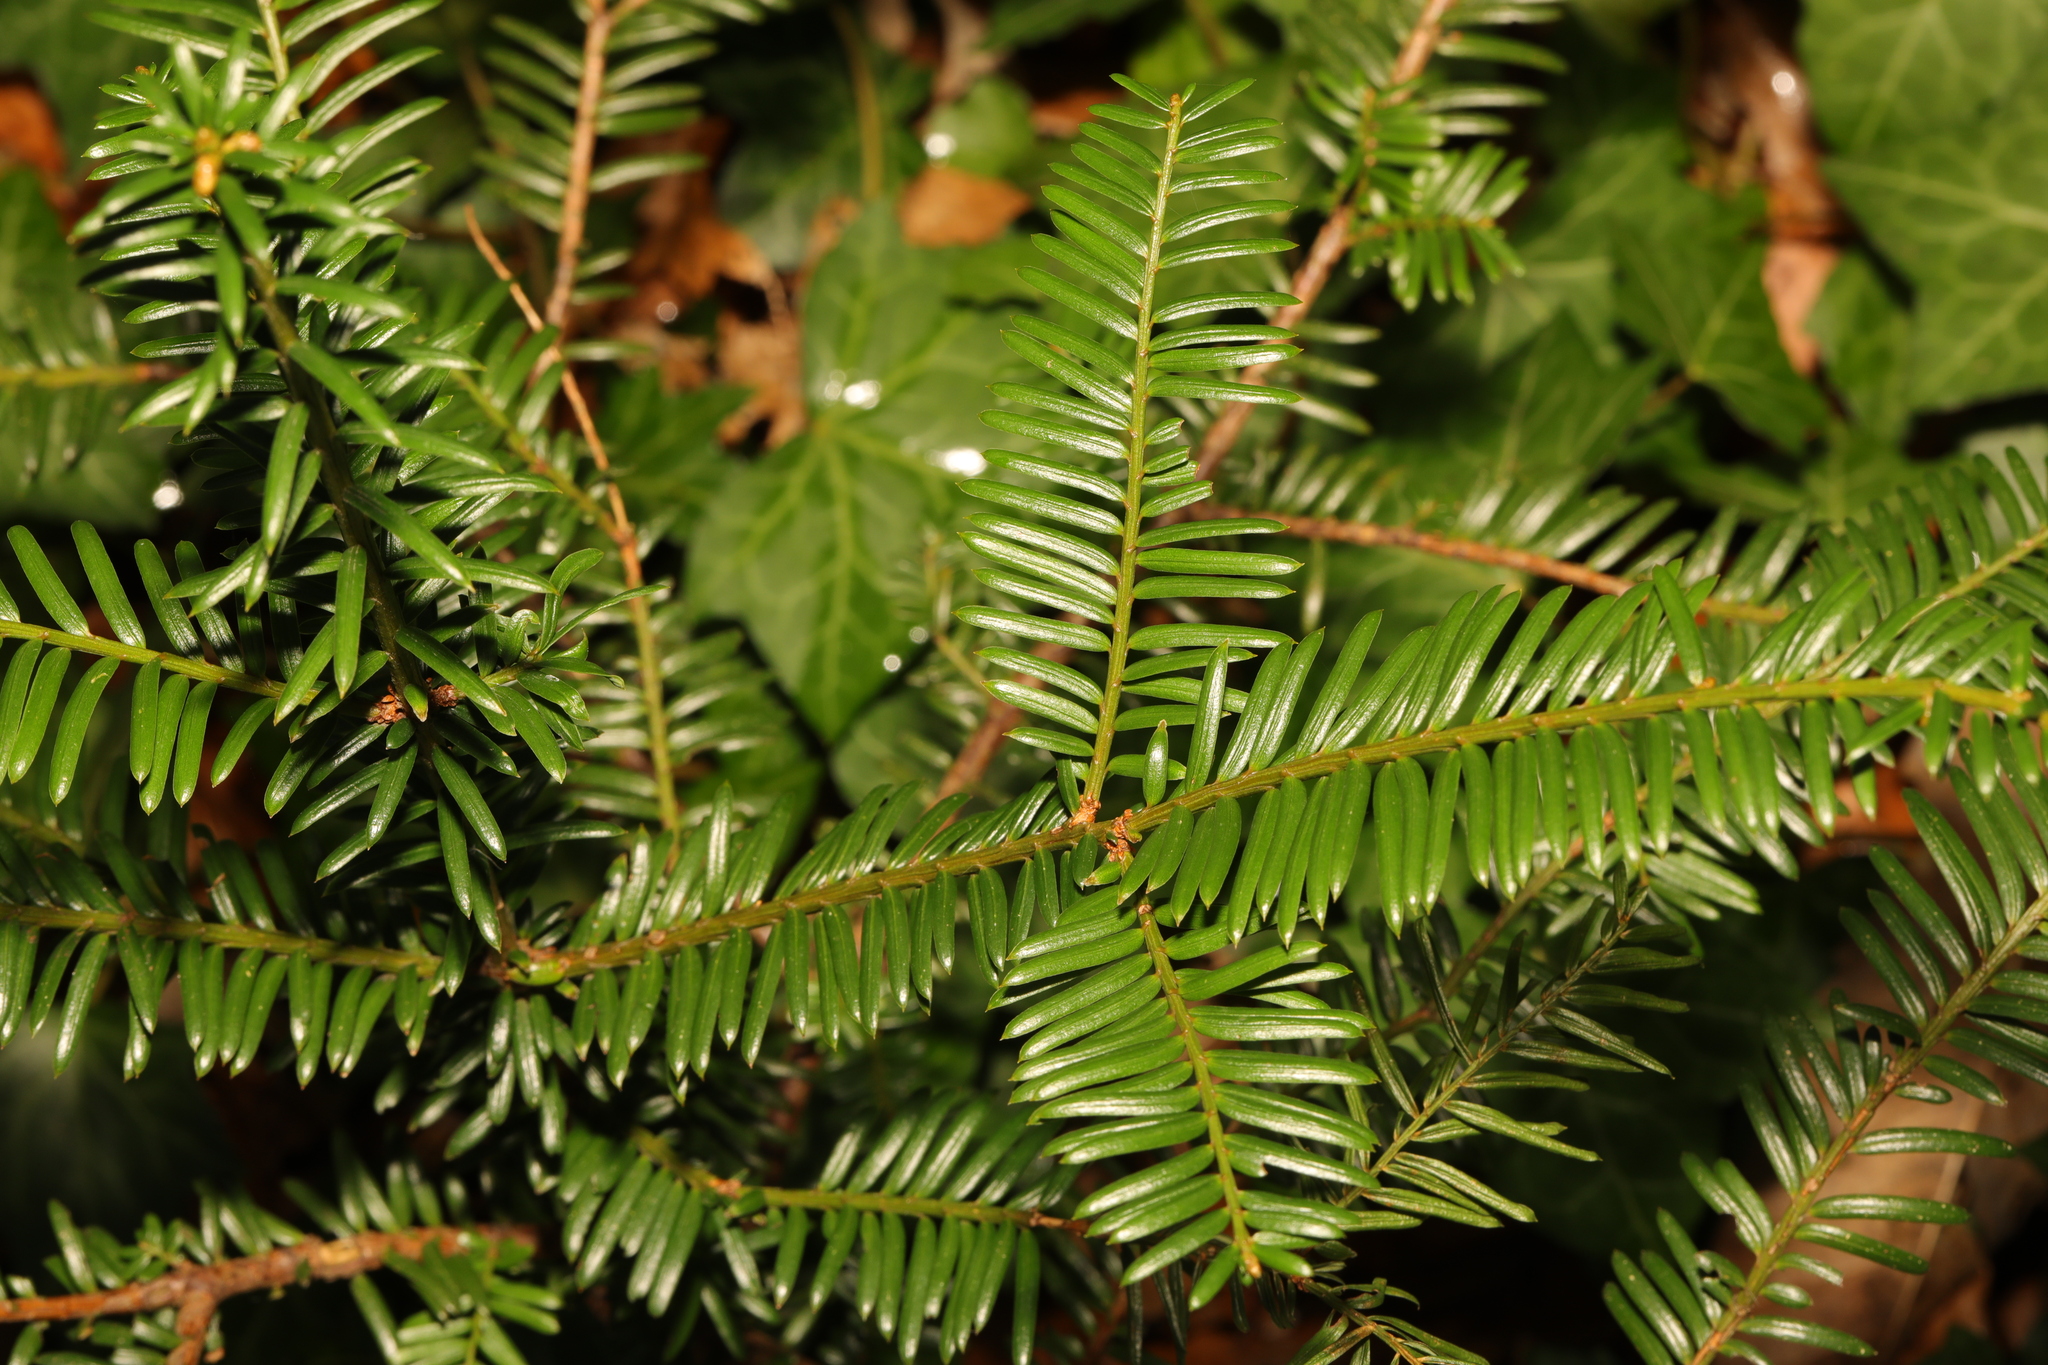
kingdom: Plantae
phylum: Tracheophyta
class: Pinopsida
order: Pinales
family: Taxaceae
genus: Taxus
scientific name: Taxus baccata
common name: Yew
